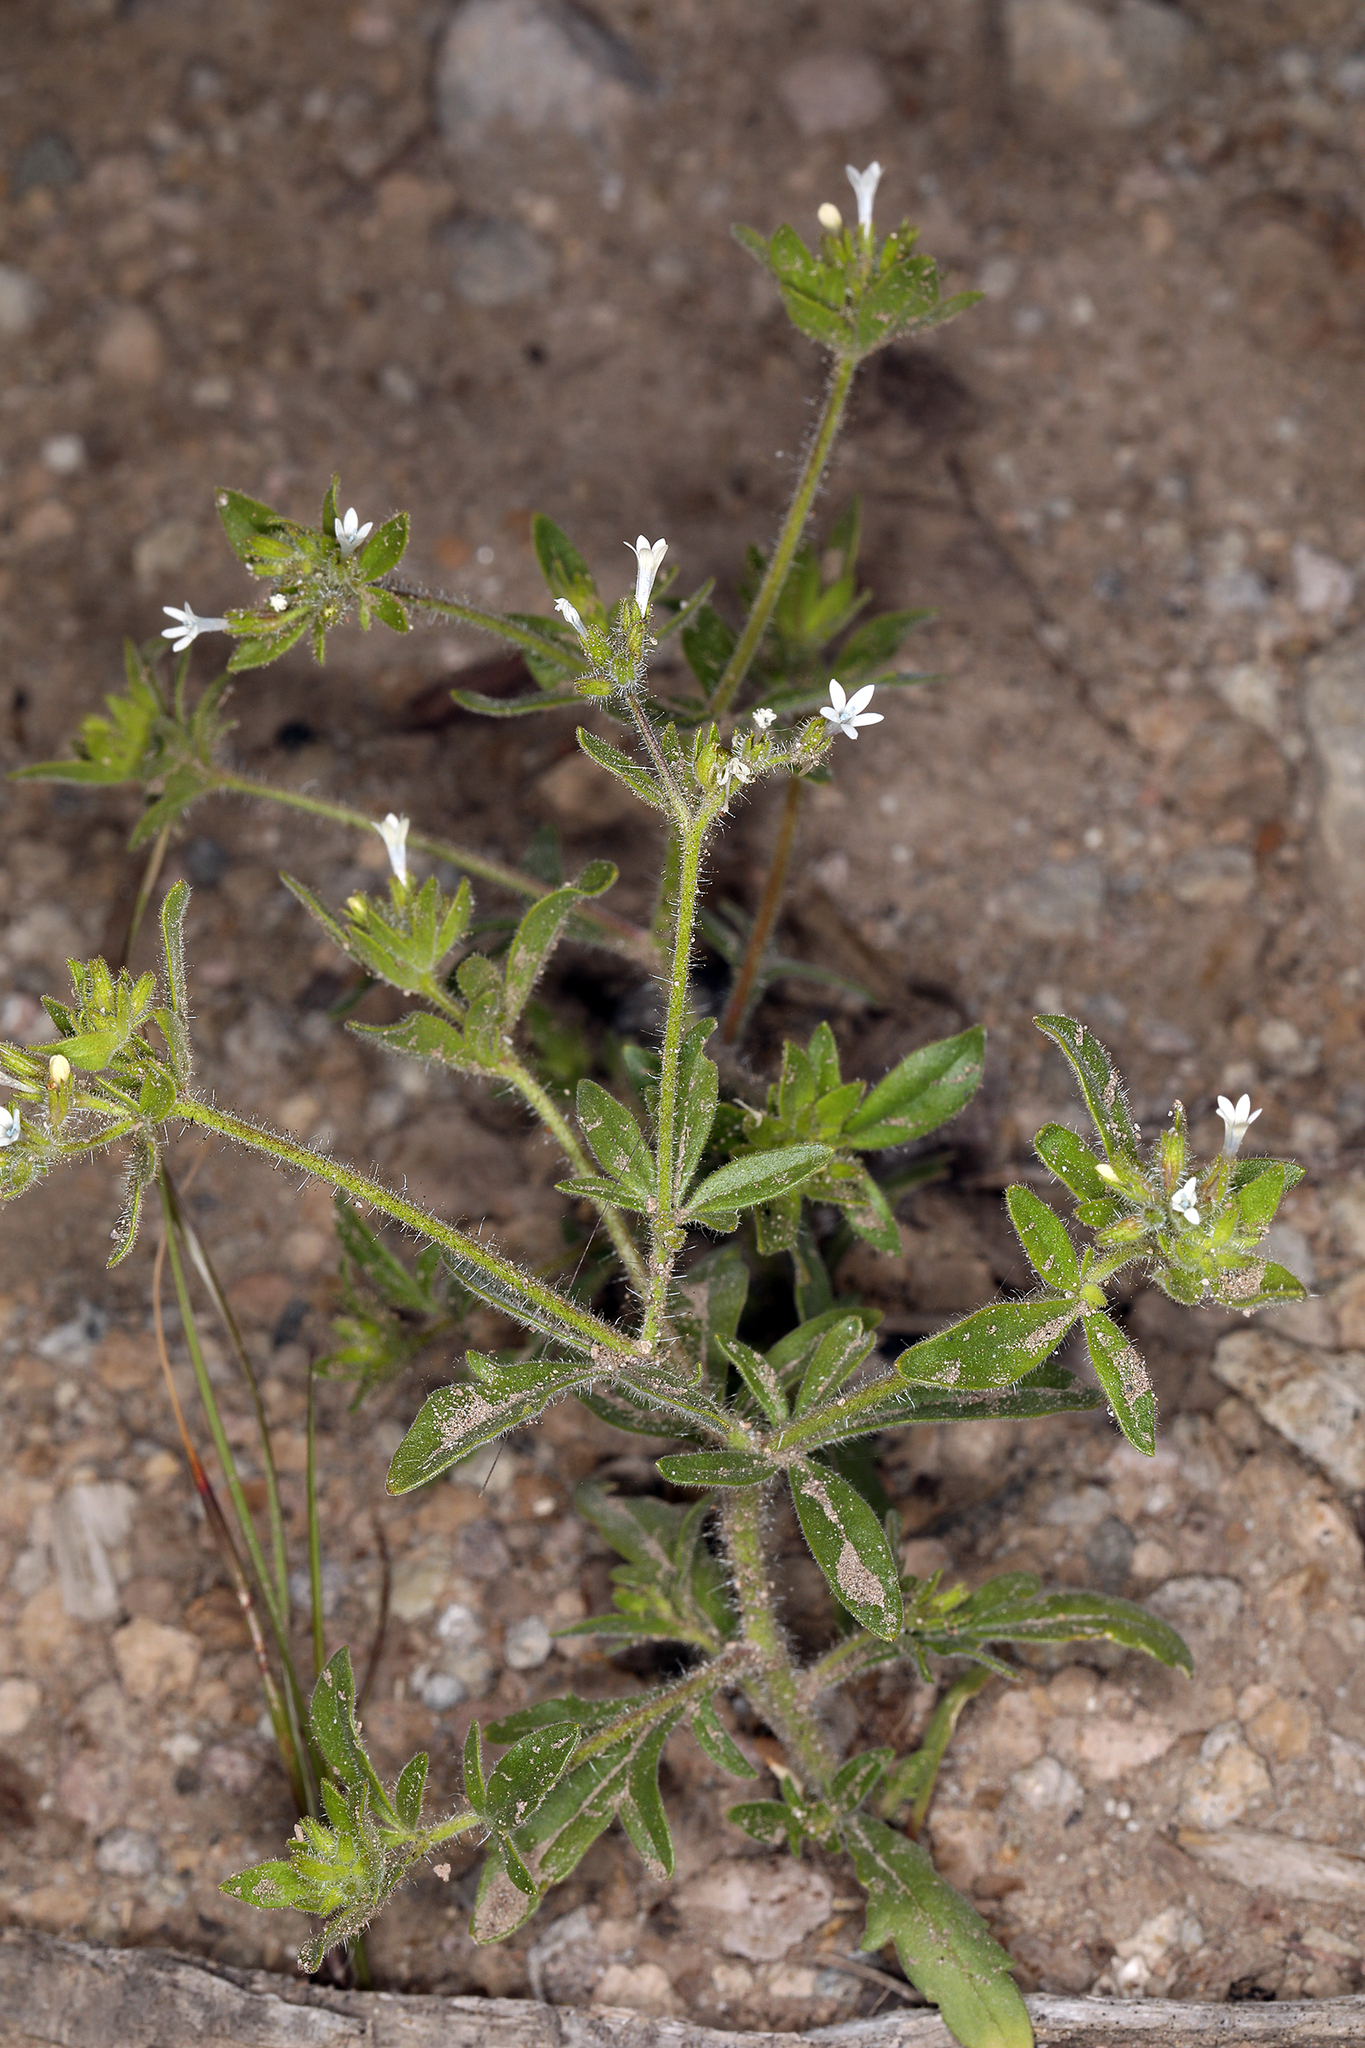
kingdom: Plantae
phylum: Tracheophyta
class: Magnoliopsida
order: Ericales
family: Polemoniaceae
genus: Allophyllum
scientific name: Allophyllum integrifolium
